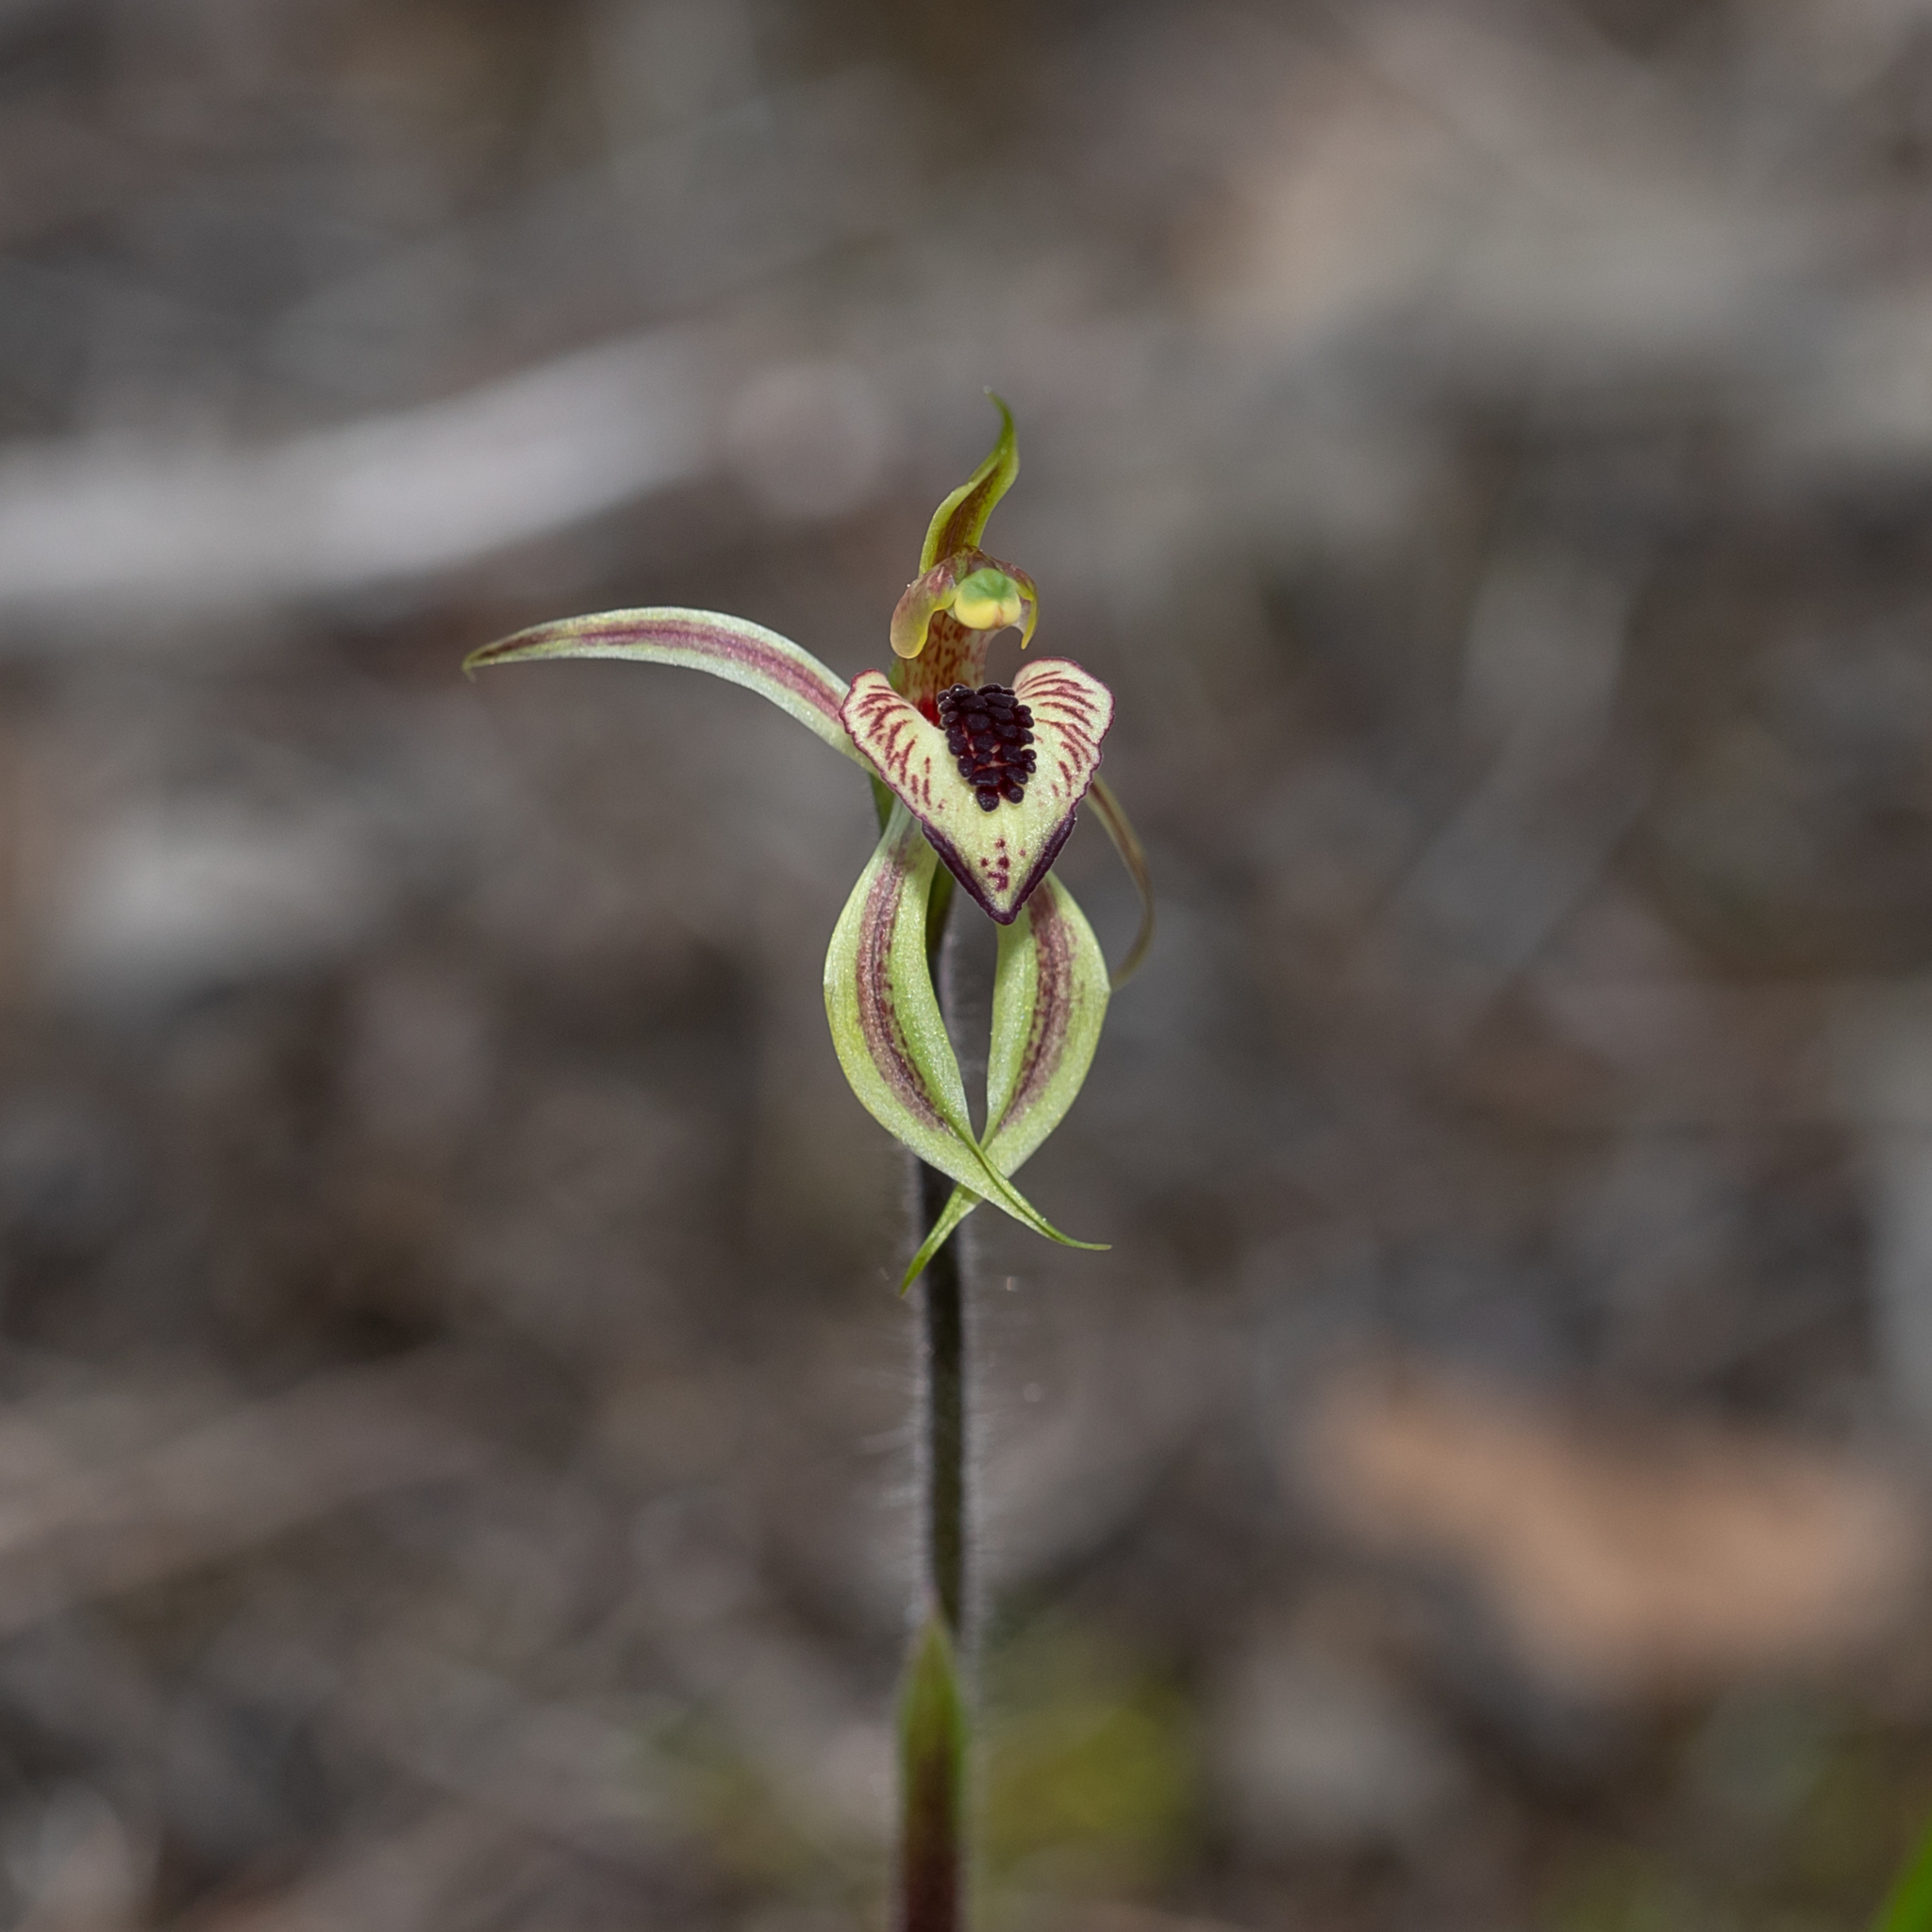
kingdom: Plantae
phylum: Tracheophyta
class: Liliopsida
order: Asparagales
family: Orchidaceae
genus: Caladenia
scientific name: Caladenia cardiochila
